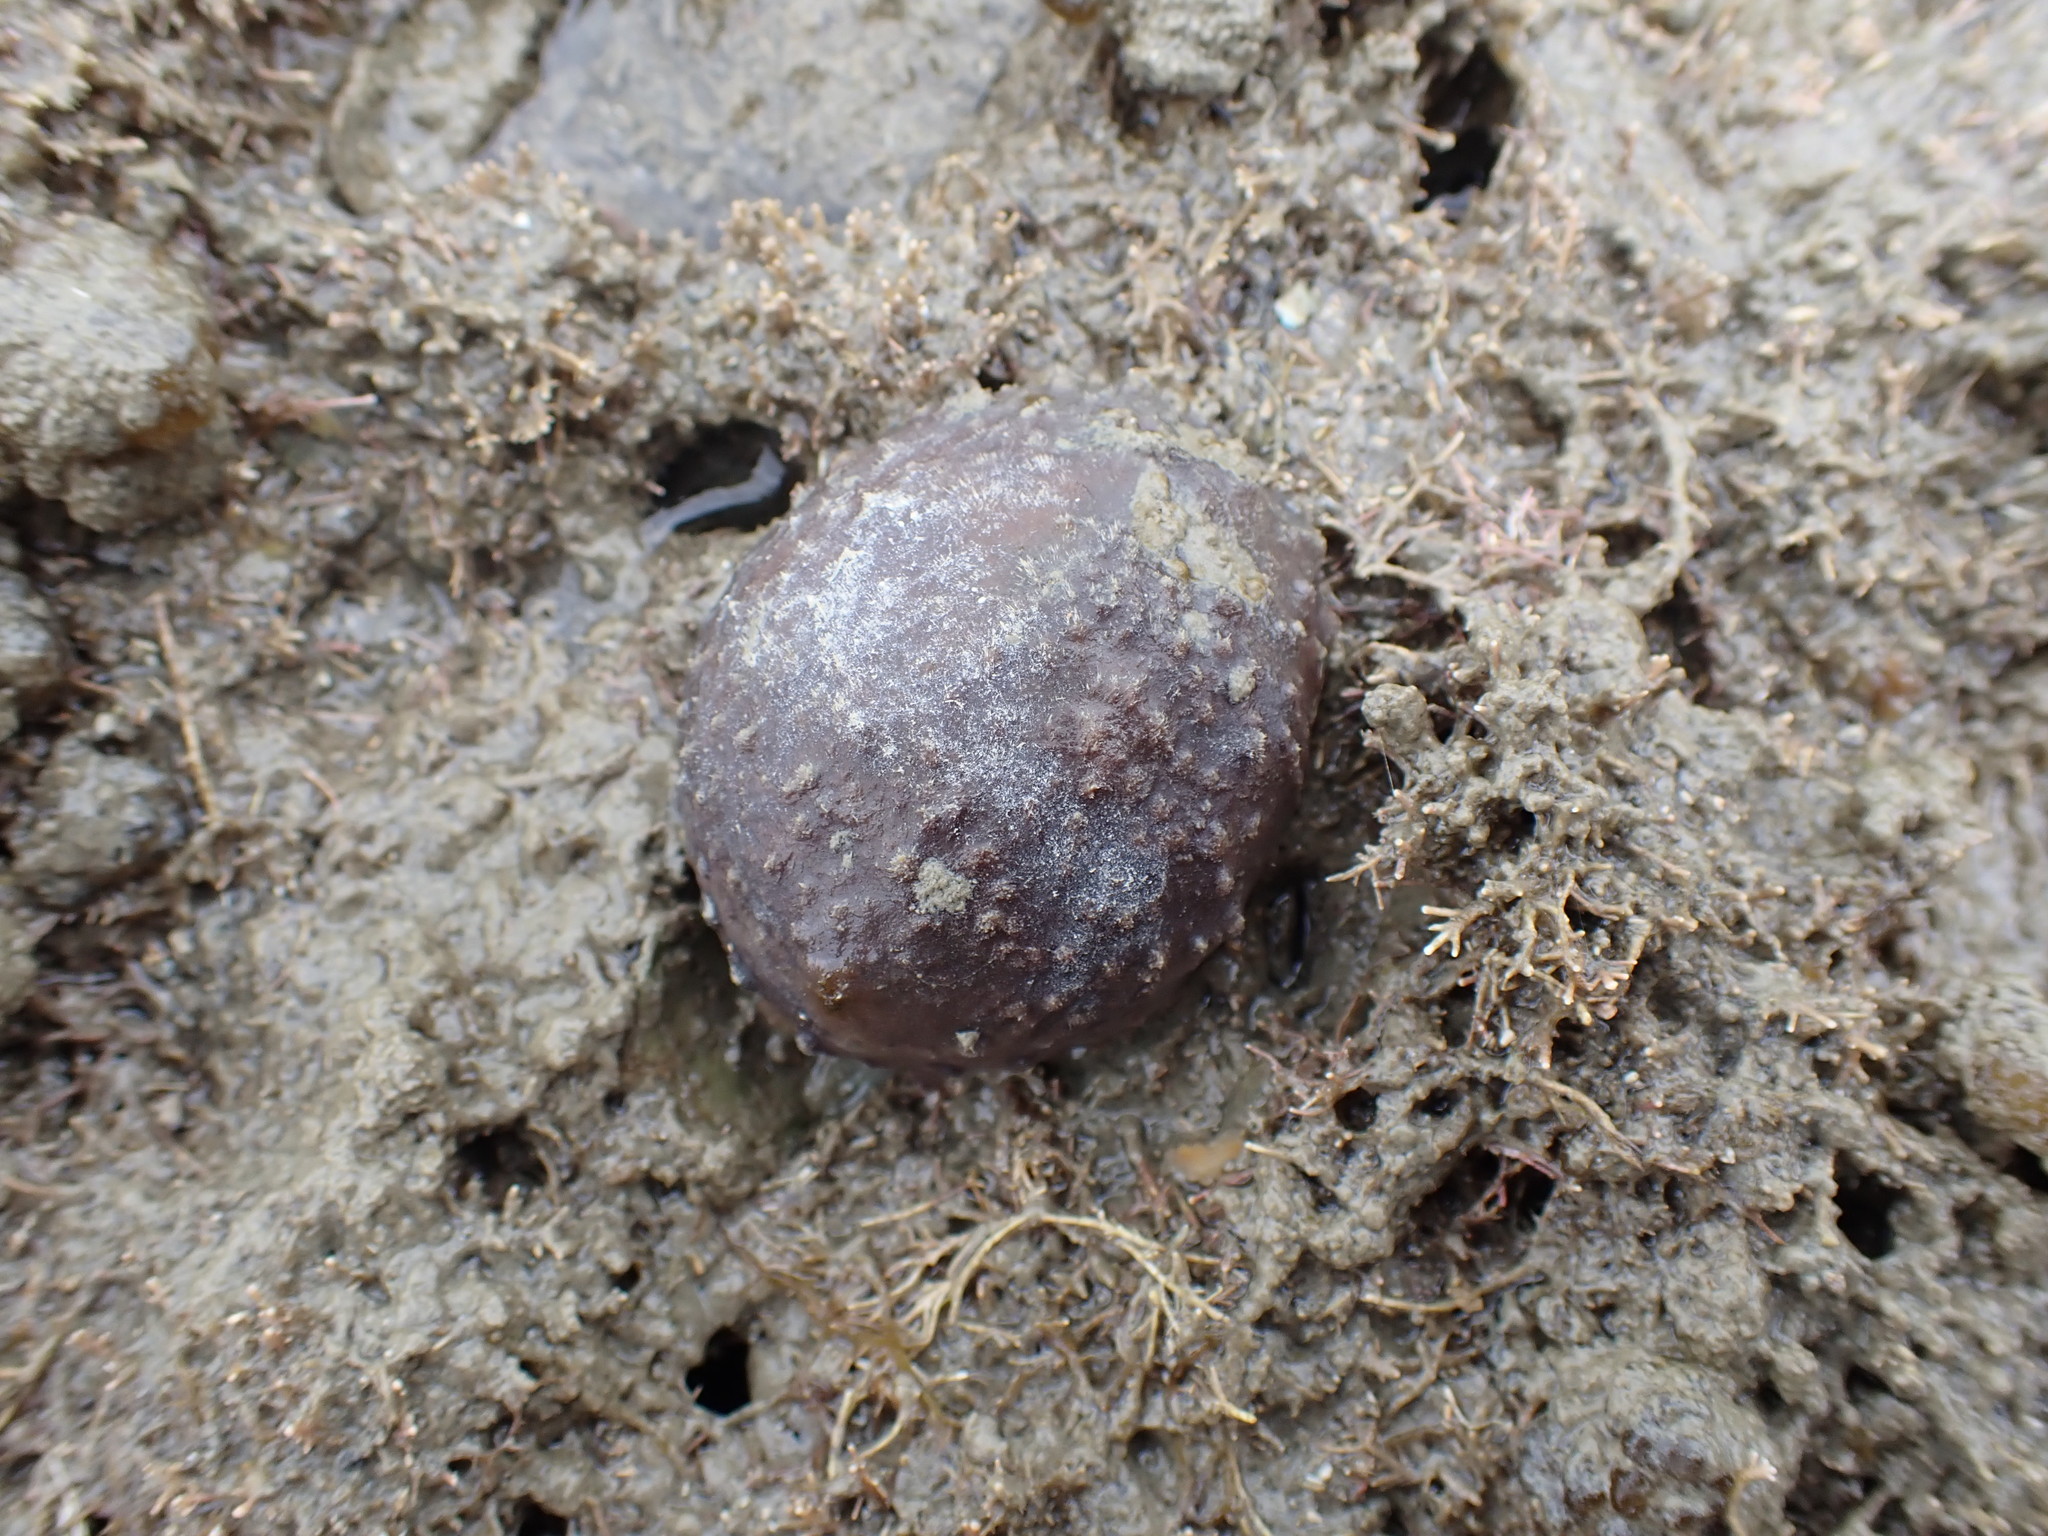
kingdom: Animalia
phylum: Porifera
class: Demospongiae
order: Suberitida
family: Suberitidae
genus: Aaptos
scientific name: Aaptos tenta
